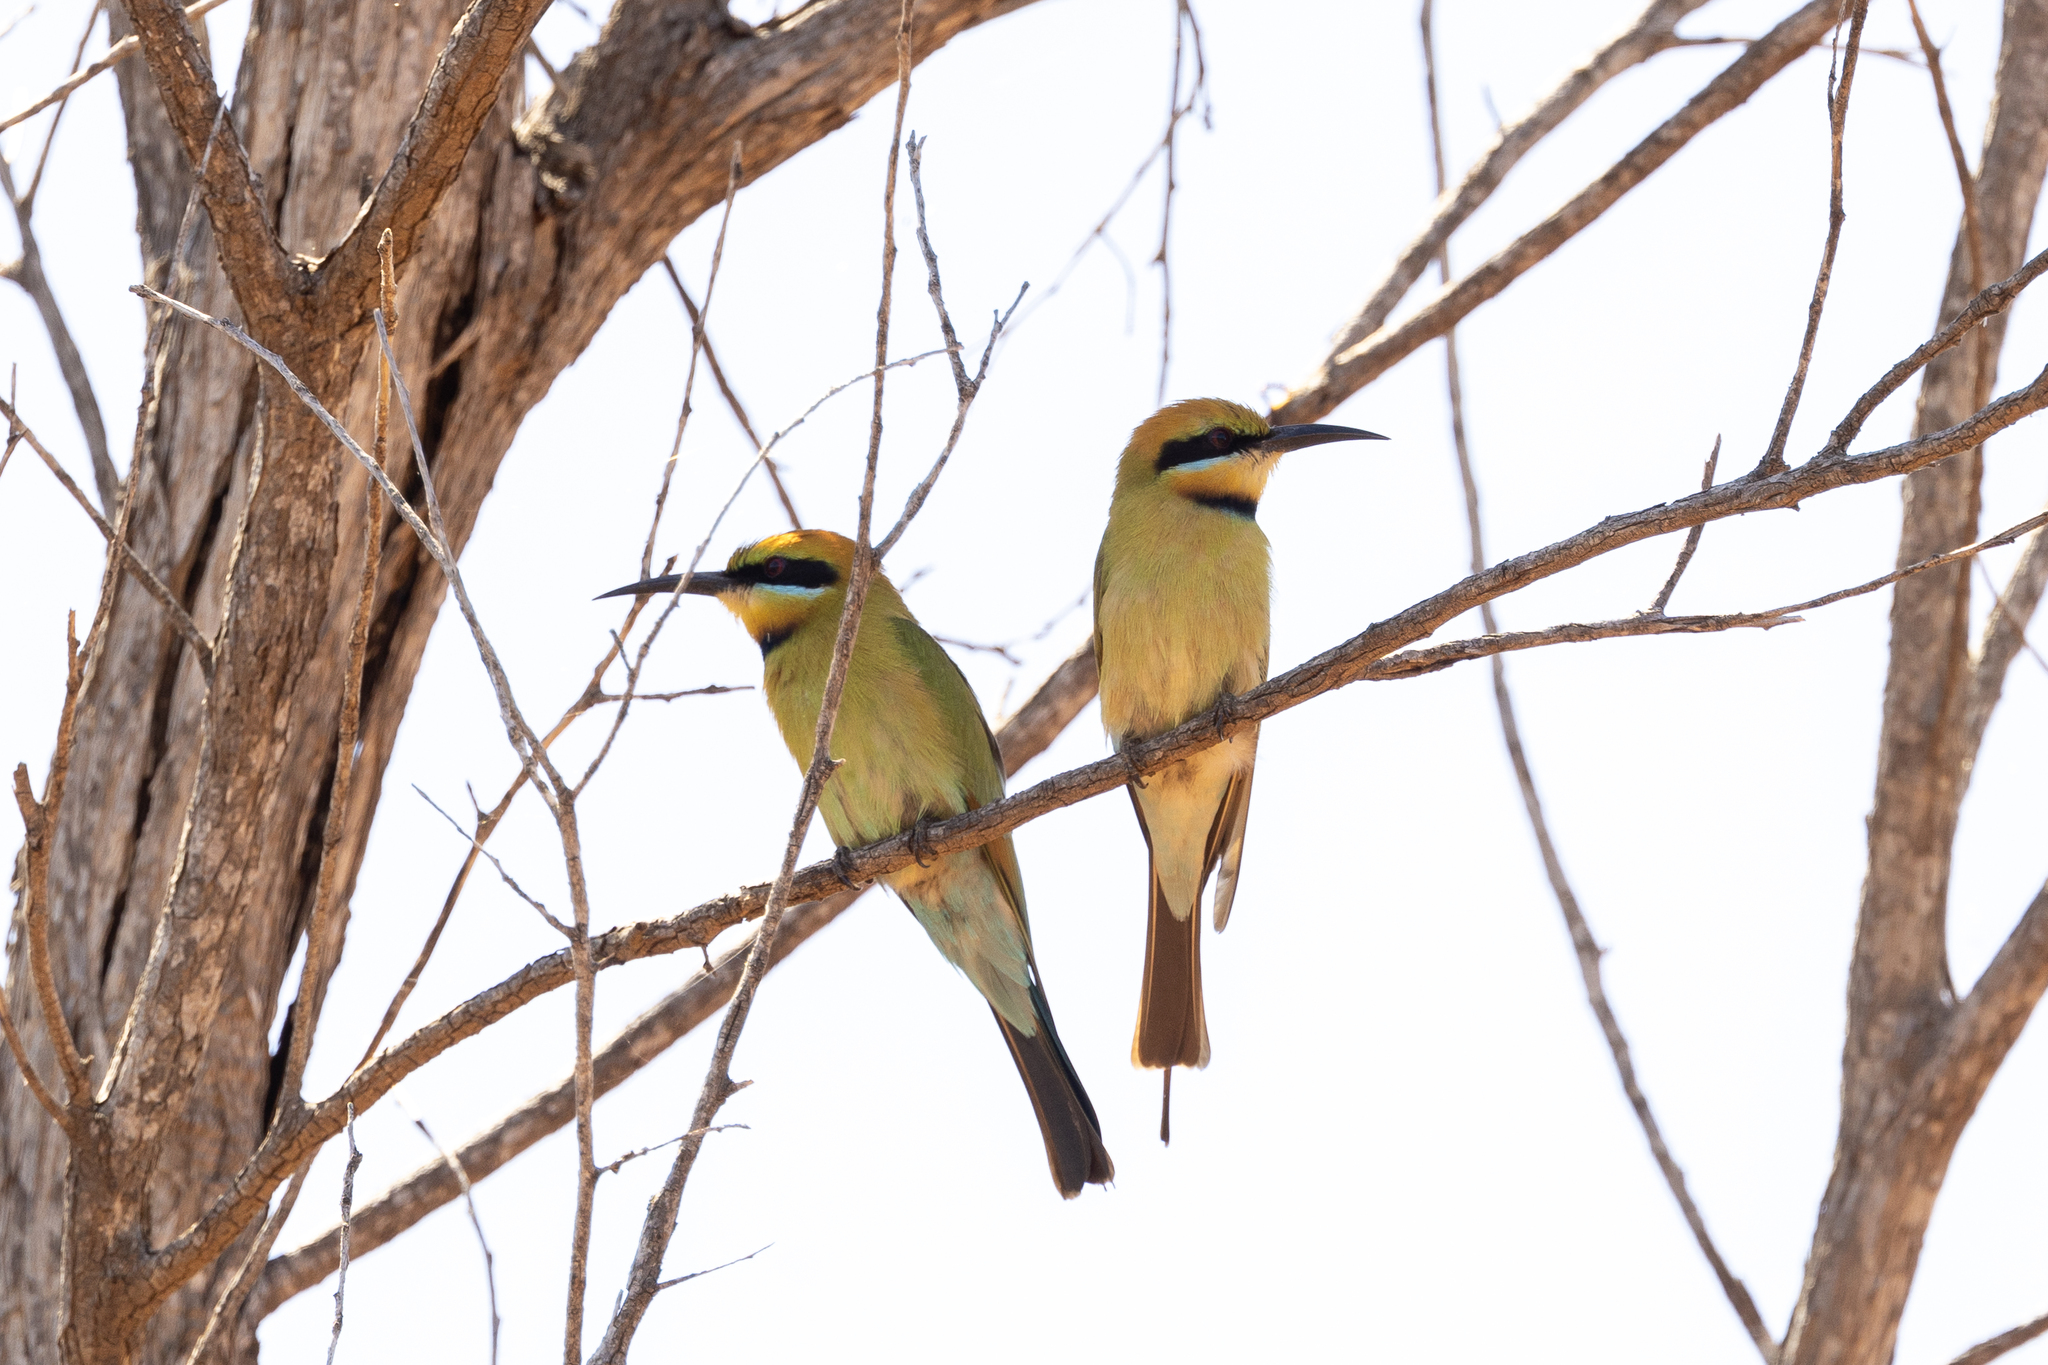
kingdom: Animalia
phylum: Chordata
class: Aves
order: Coraciiformes
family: Meropidae
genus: Merops
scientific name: Merops ornatus
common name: Rainbow bee-eater
